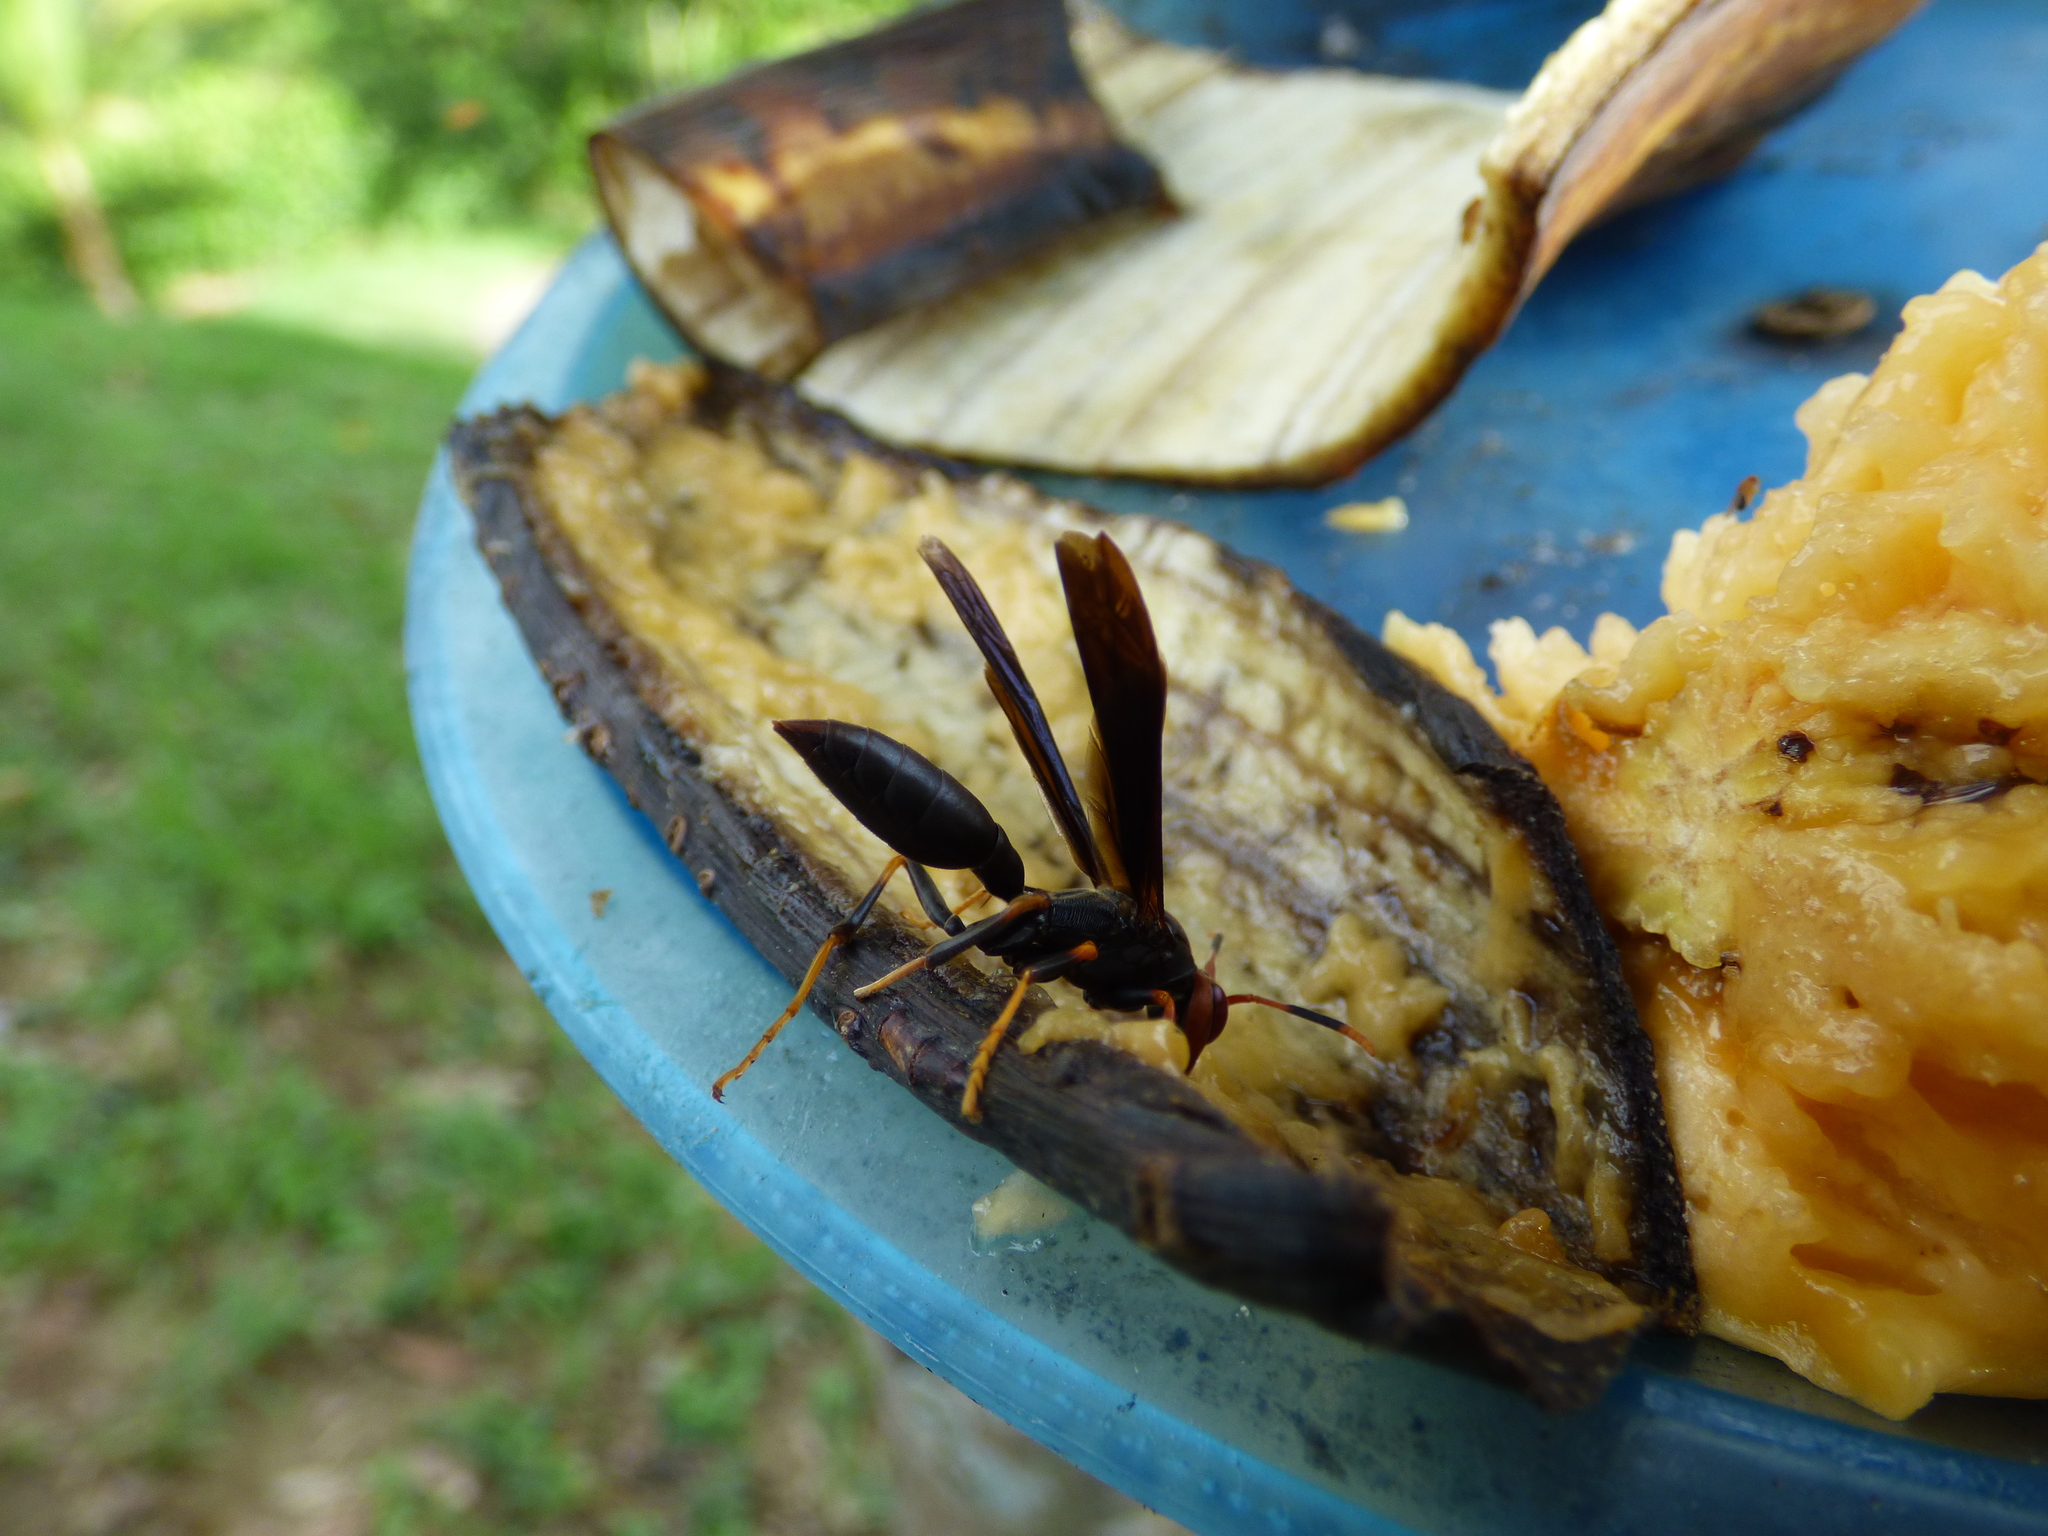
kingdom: Animalia
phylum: Arthropoda
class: Insecta
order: Hymenoptera
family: Eumenidae
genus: Polistes
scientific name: Polistes erythrocephalus
